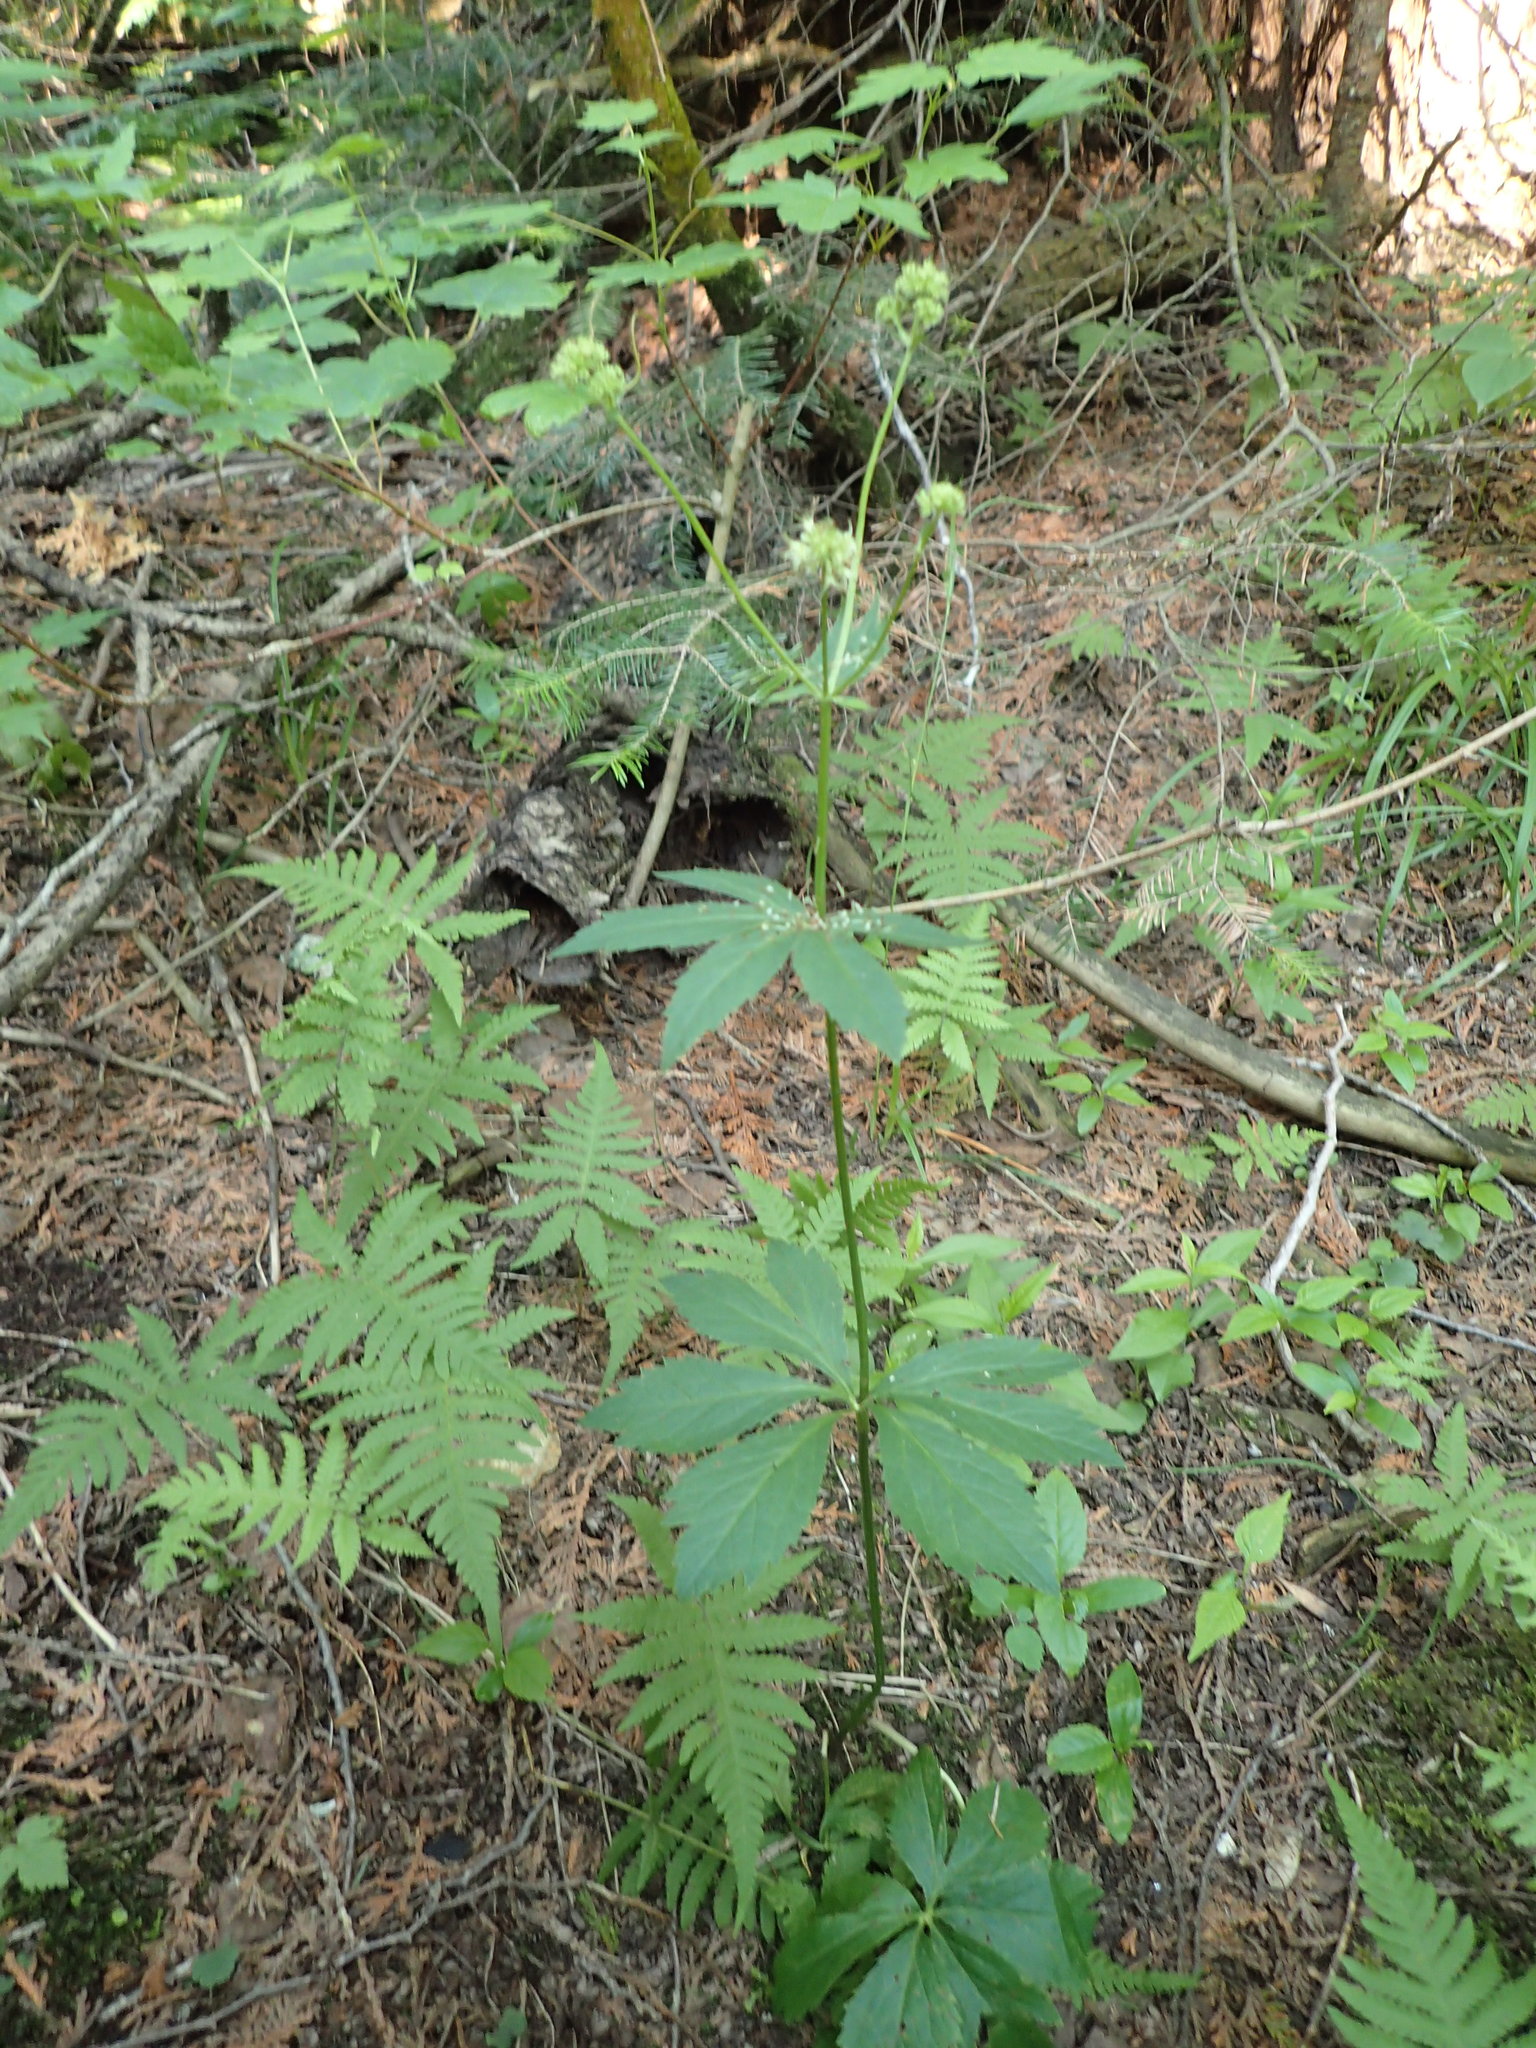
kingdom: Plantae
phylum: Tracheophyta
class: Magnoliopsida
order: Apiales
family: Apiaceae
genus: Sanicula
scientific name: Sanicula marilandica
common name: Black snakeroot
